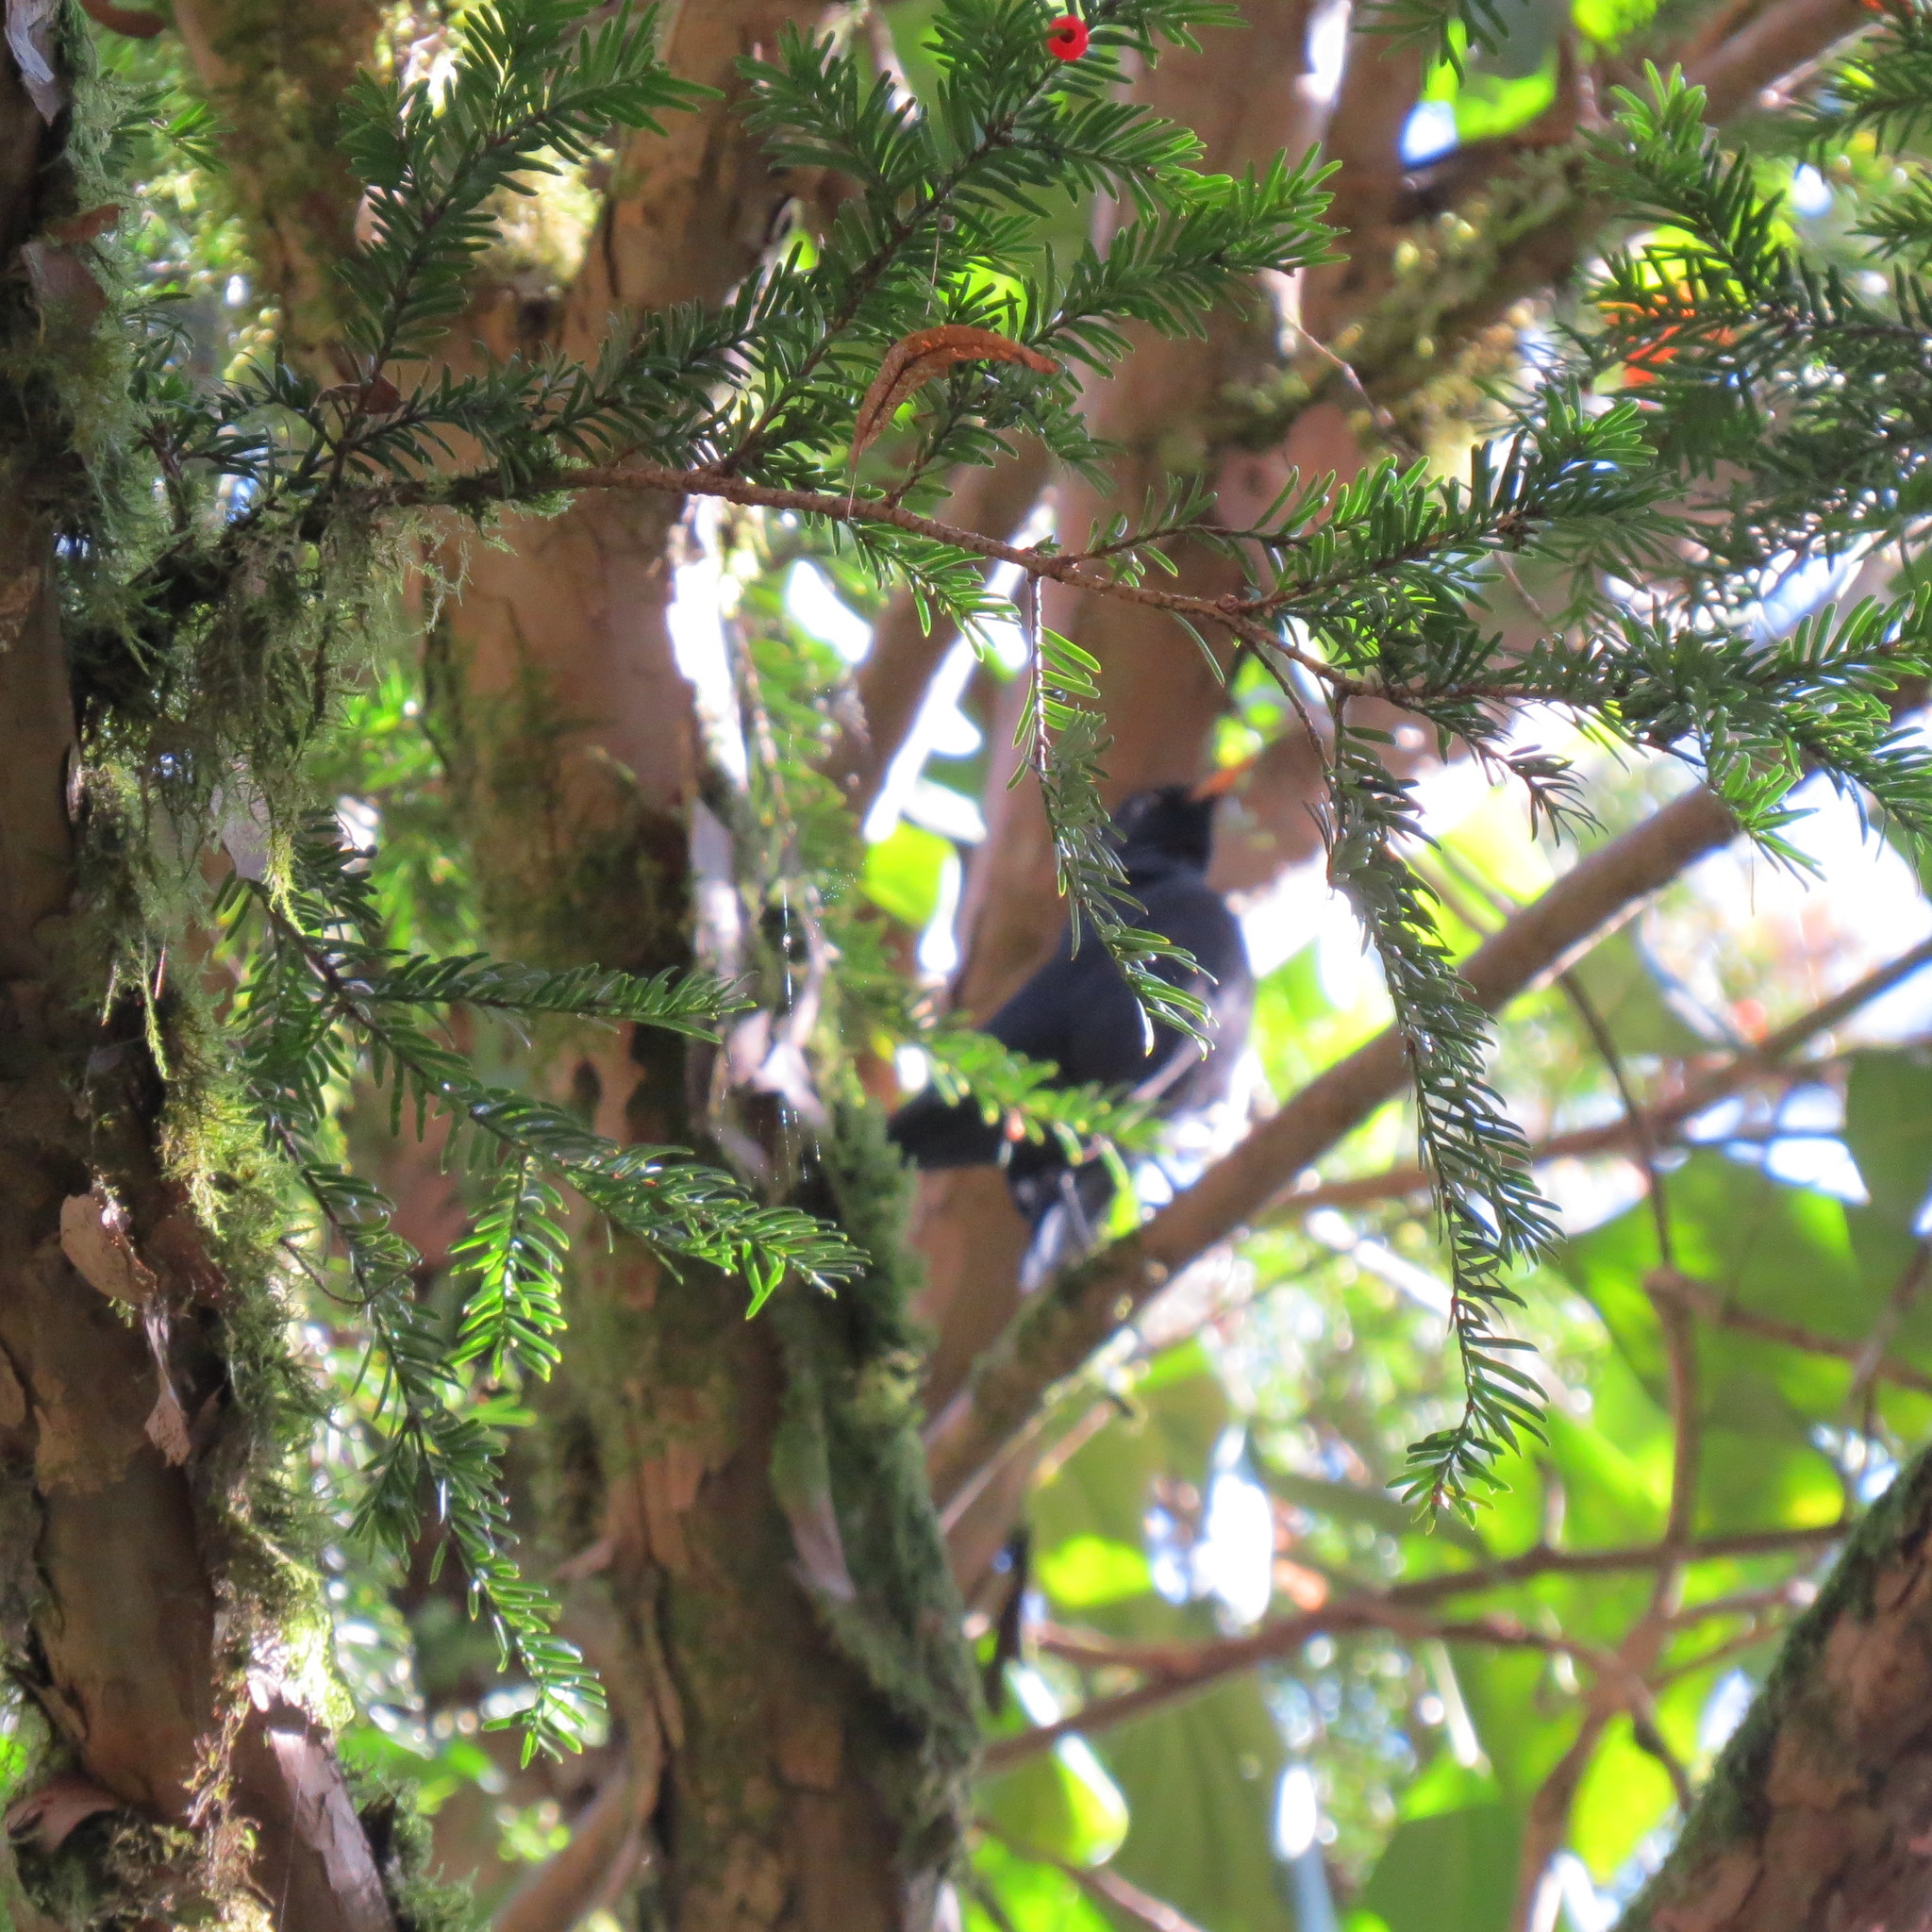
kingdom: Animalia
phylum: Chordata
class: Aves
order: Passeriformes
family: Turdidae
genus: Turdus
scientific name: Turdus merula
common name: Common blackbird
